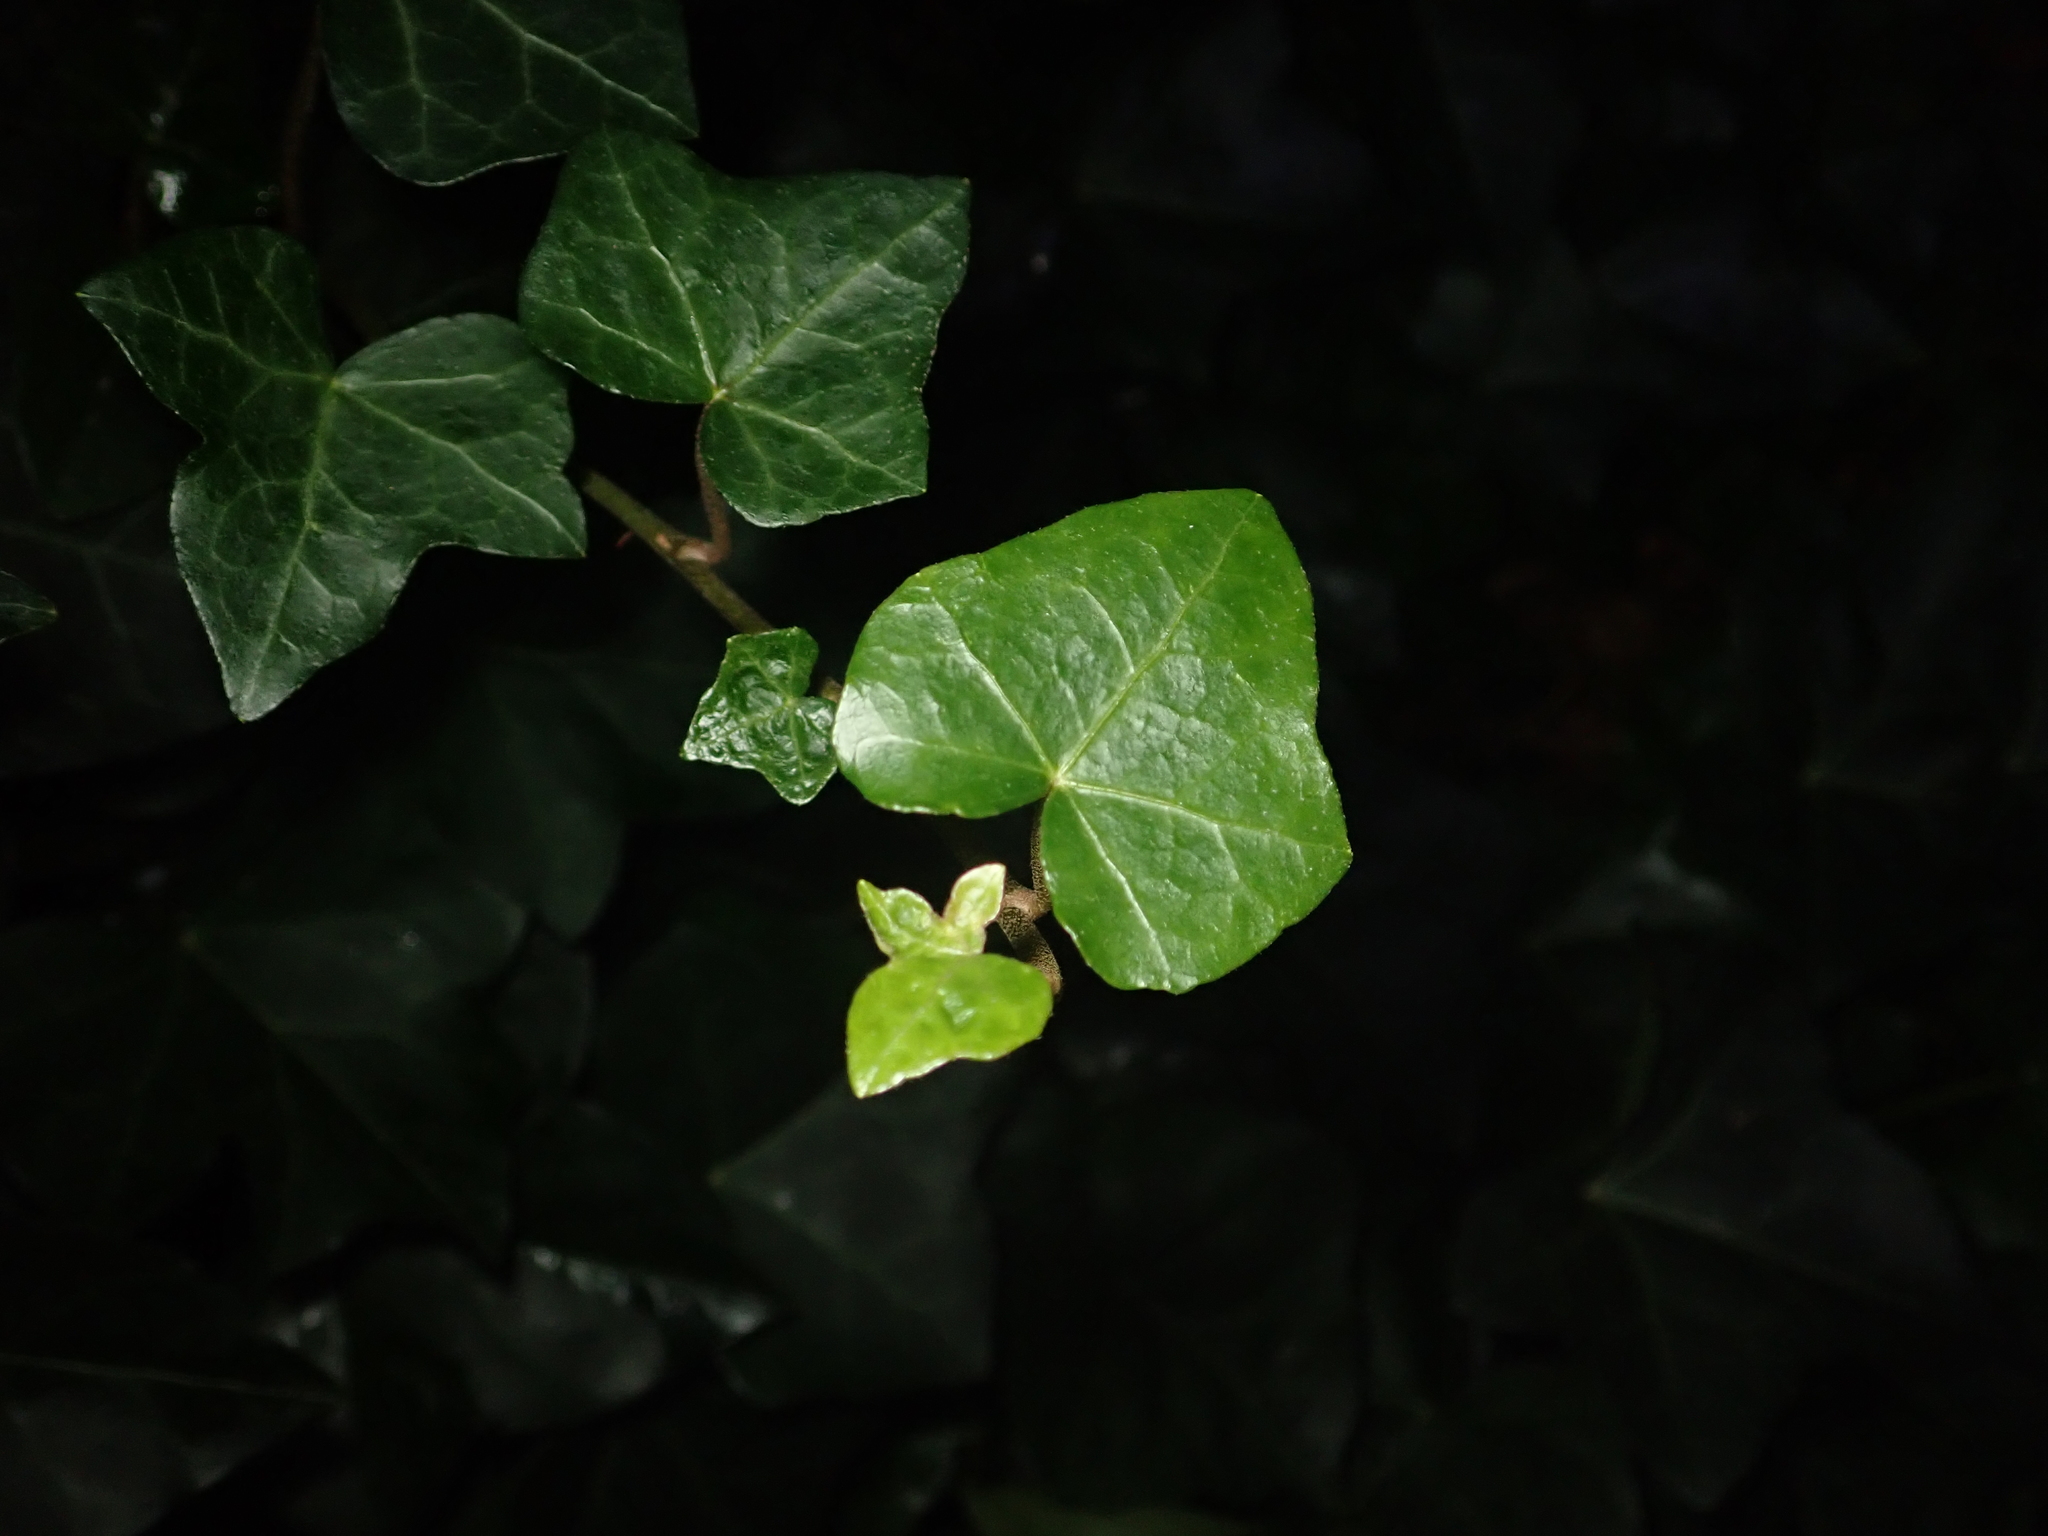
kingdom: Plantae
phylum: Tracheophyta
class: Magnoliopsida
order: Apiales
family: Araliaceae
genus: Hedera
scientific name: Hedera helix
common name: Ivy
